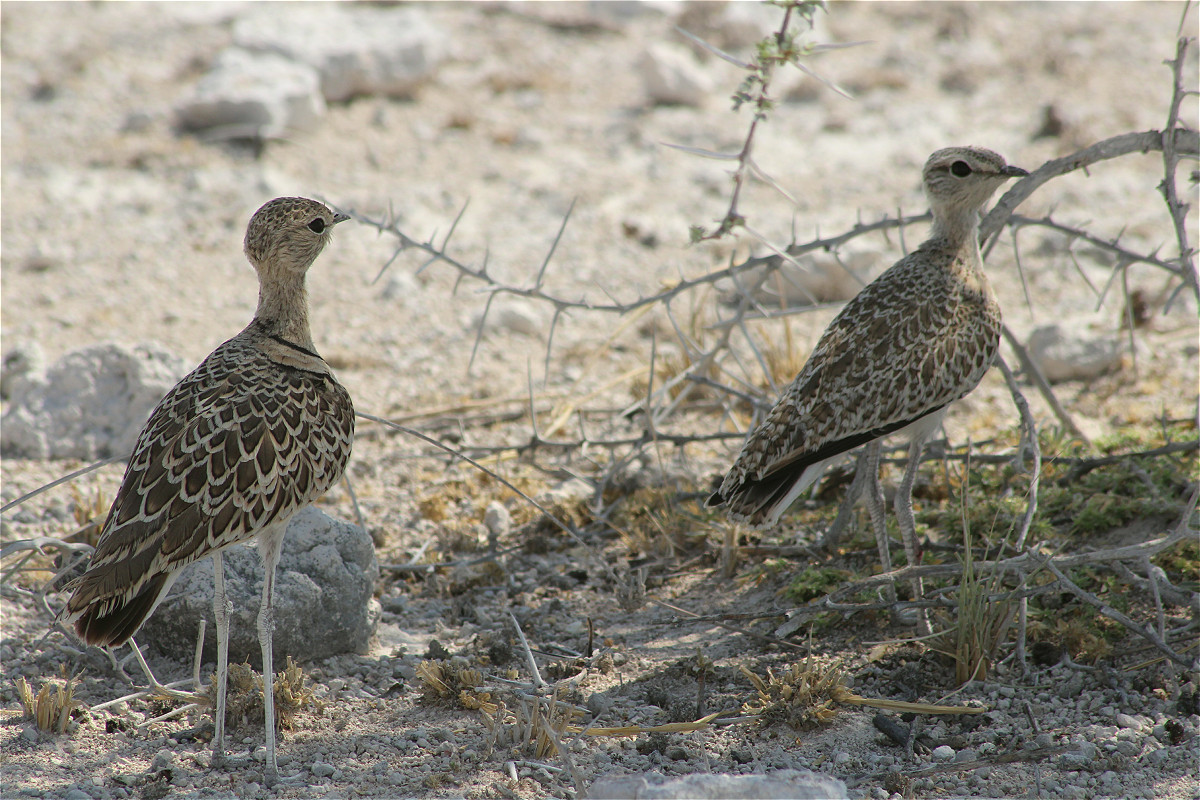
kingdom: Animalia
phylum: Chordata
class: Aves
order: Charadriiformes
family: Glareolidae
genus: Rhinoptilus
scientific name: Rhinoptilus africanus
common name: Double-banded courser
